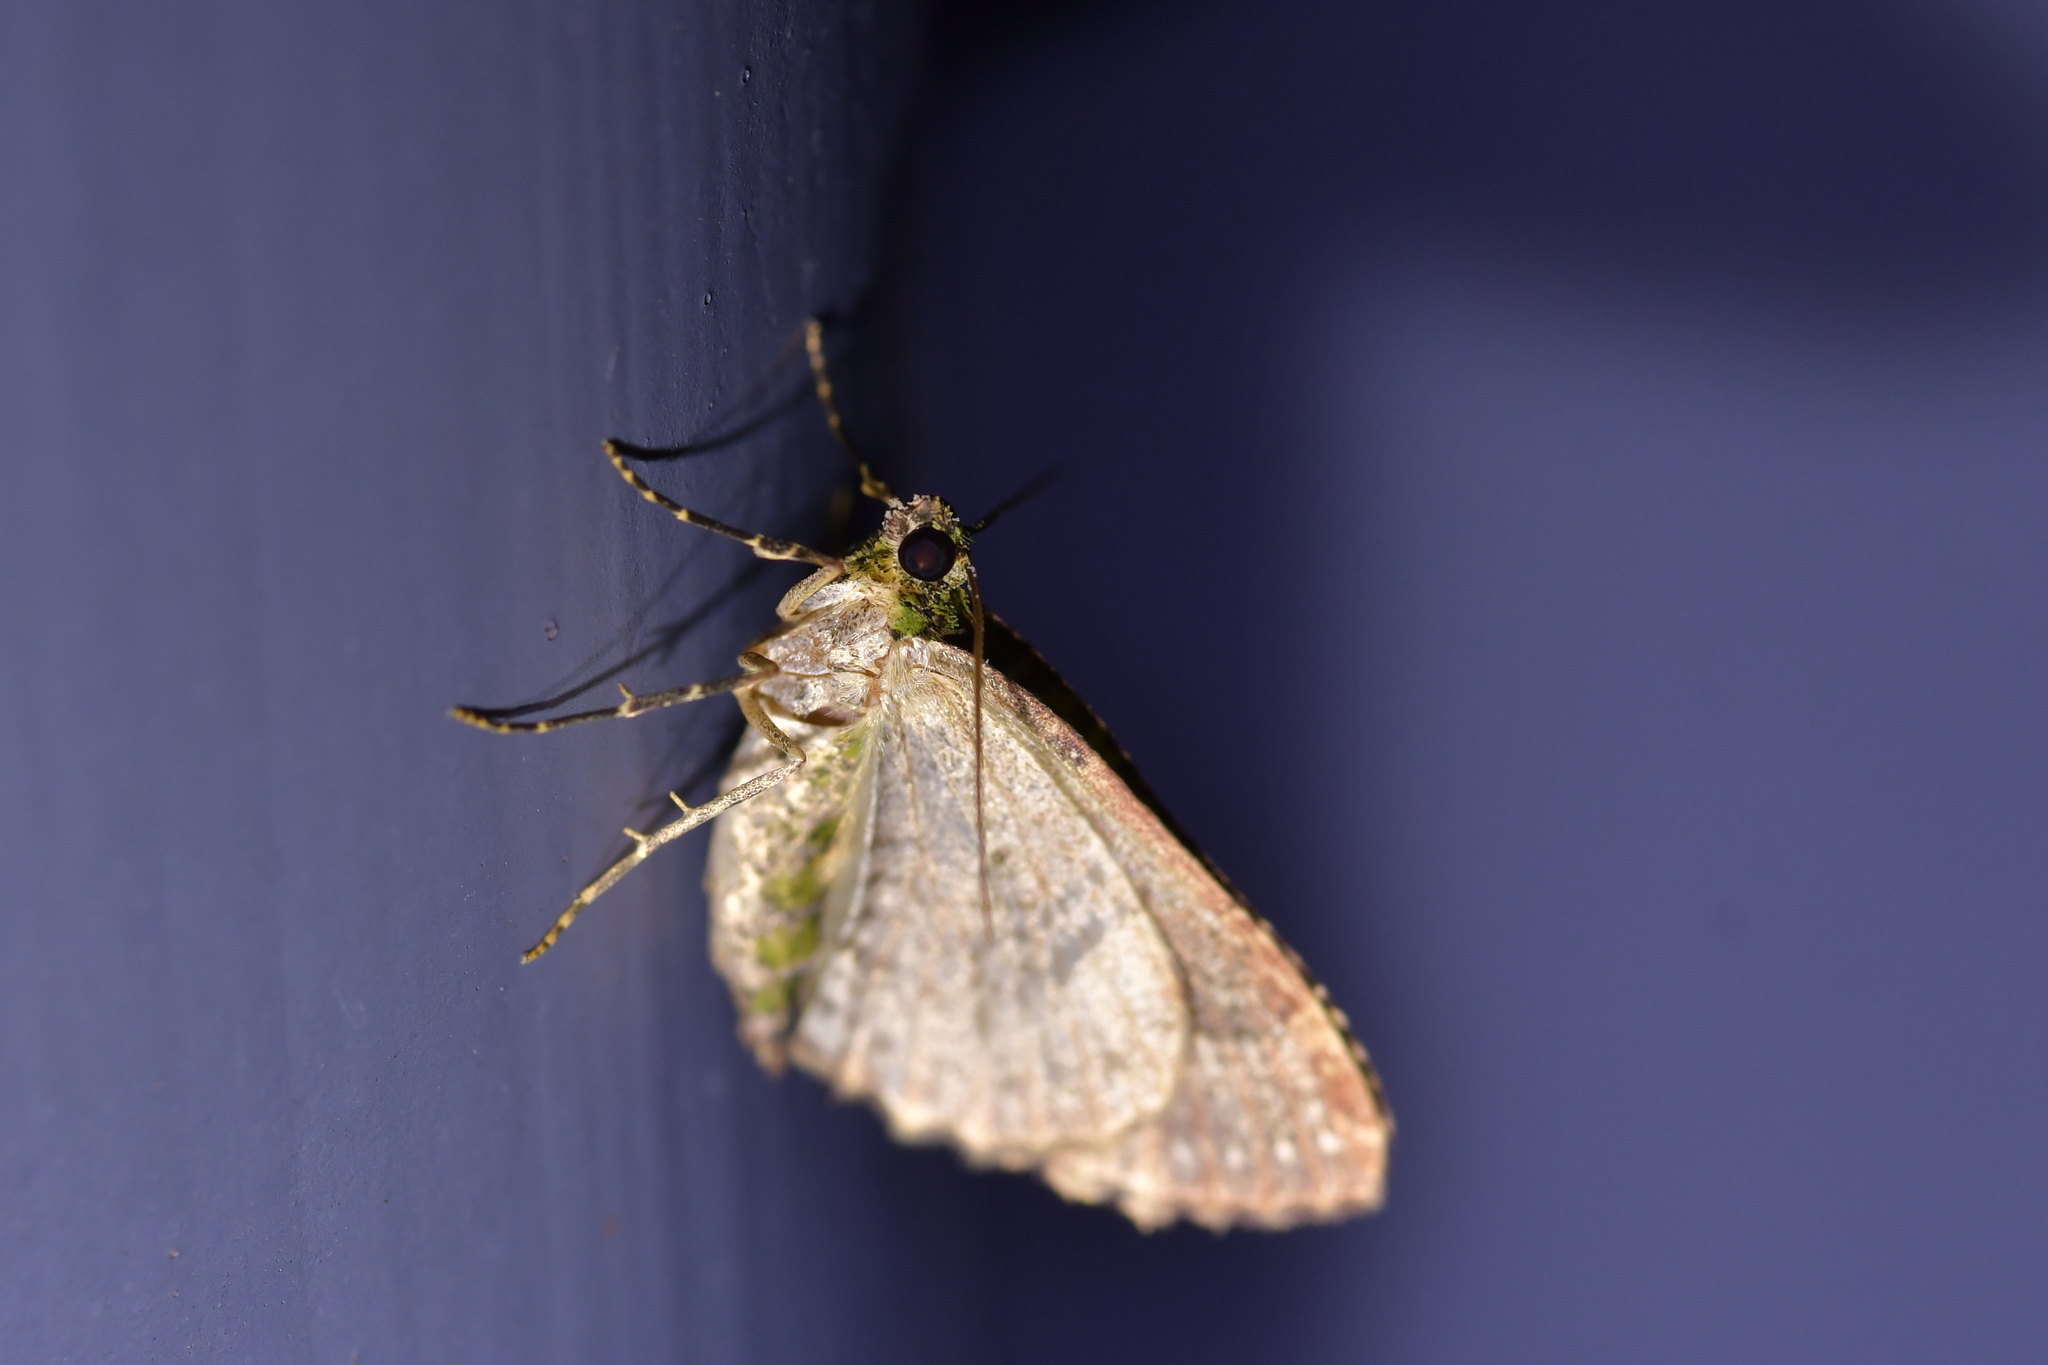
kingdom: Animalia
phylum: Arthropoda
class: Insecta
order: Lepidoptera
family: Geometridae
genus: Austrocidaria
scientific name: Austrocidaria similata
